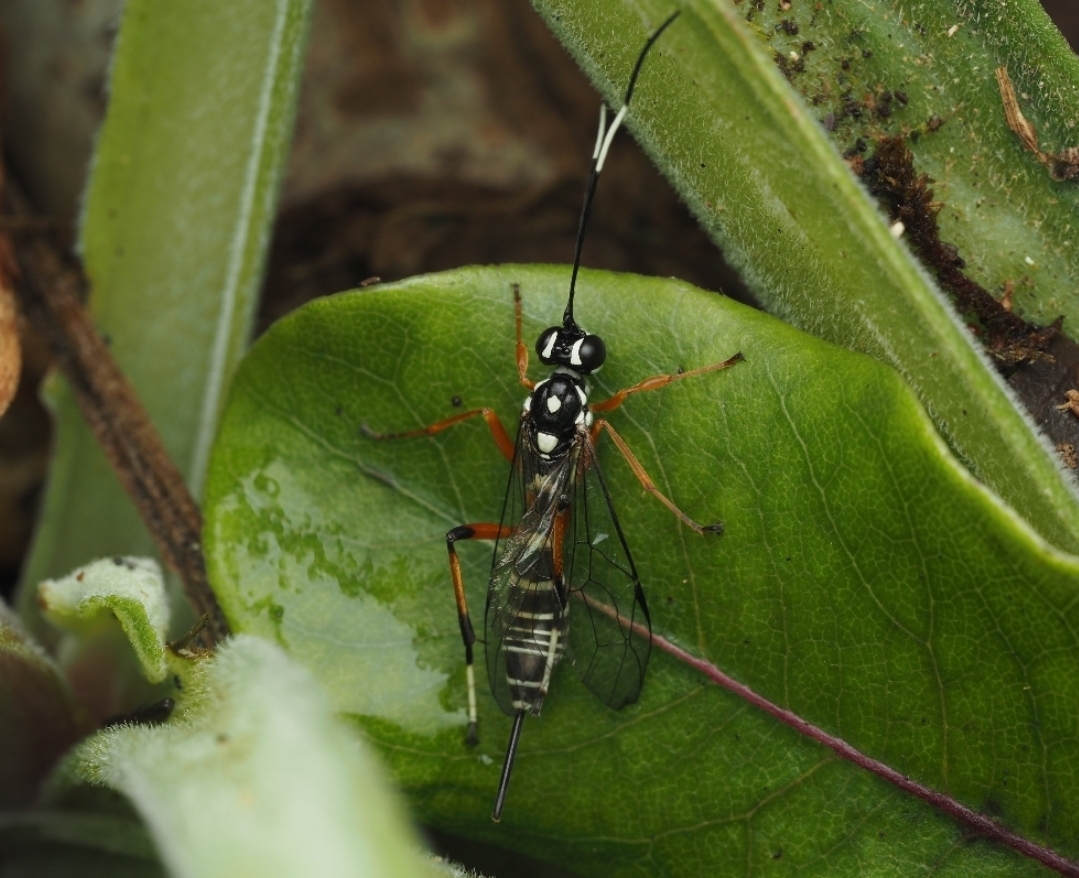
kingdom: Animalia
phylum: Arthropoda
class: Insecta
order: Hymenoptera
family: Ichneumonidae
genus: Xanthocryptus
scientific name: Xanthocryptus novozealandicus
